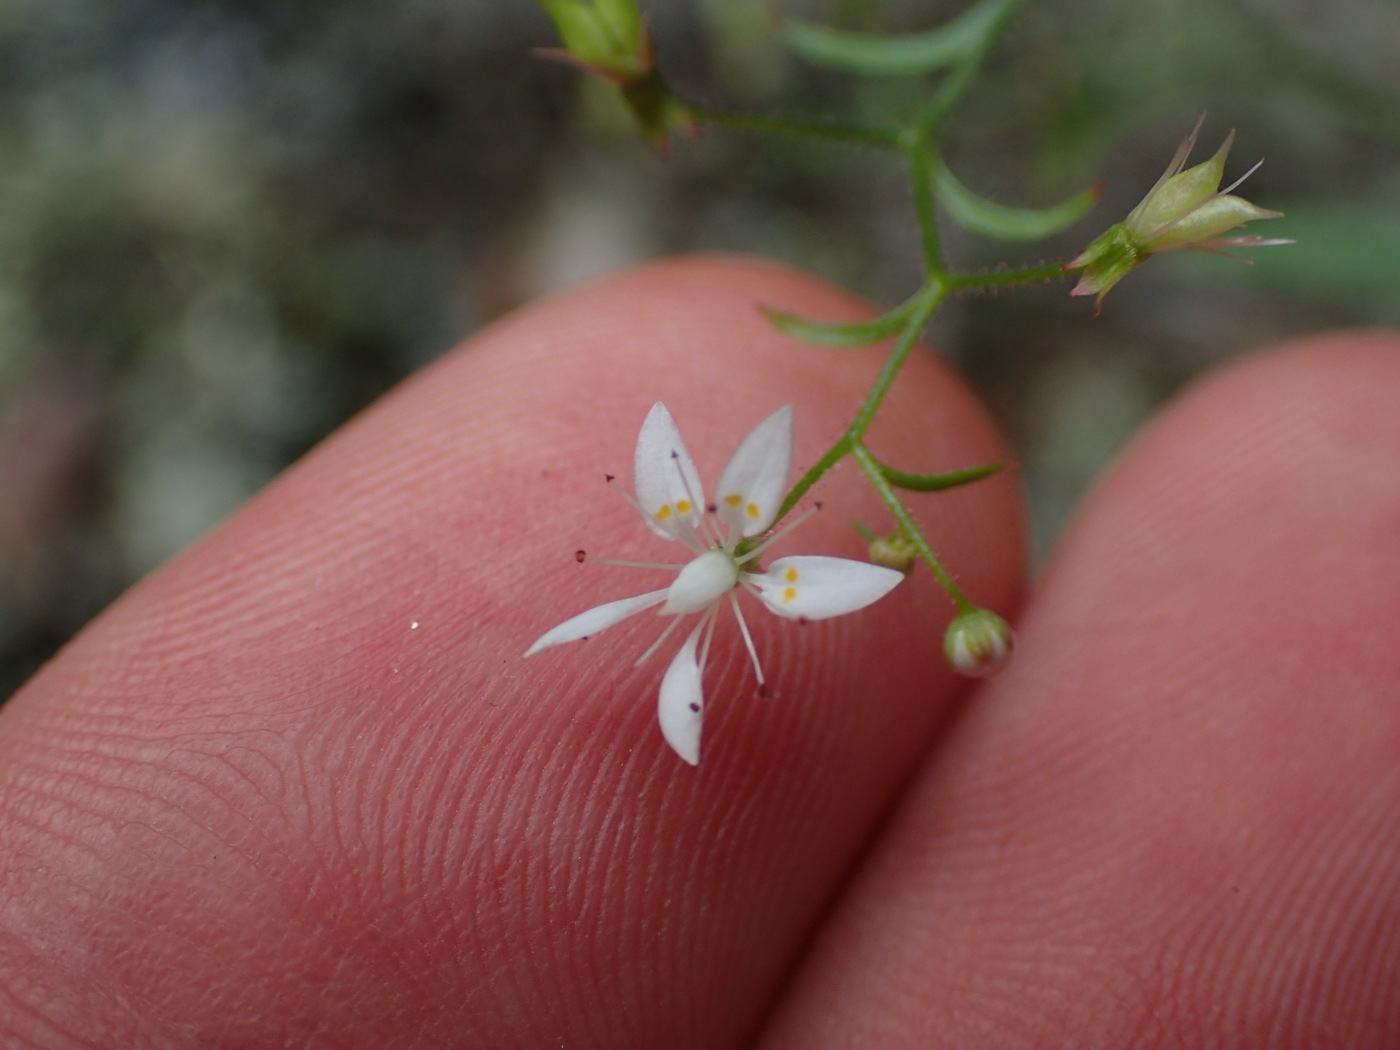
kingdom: Plantae
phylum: Tracheophyta
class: Magnoliopsida
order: Saxifragales
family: Saxifragaceae
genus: Micranthes
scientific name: Micranthes petiolaris
